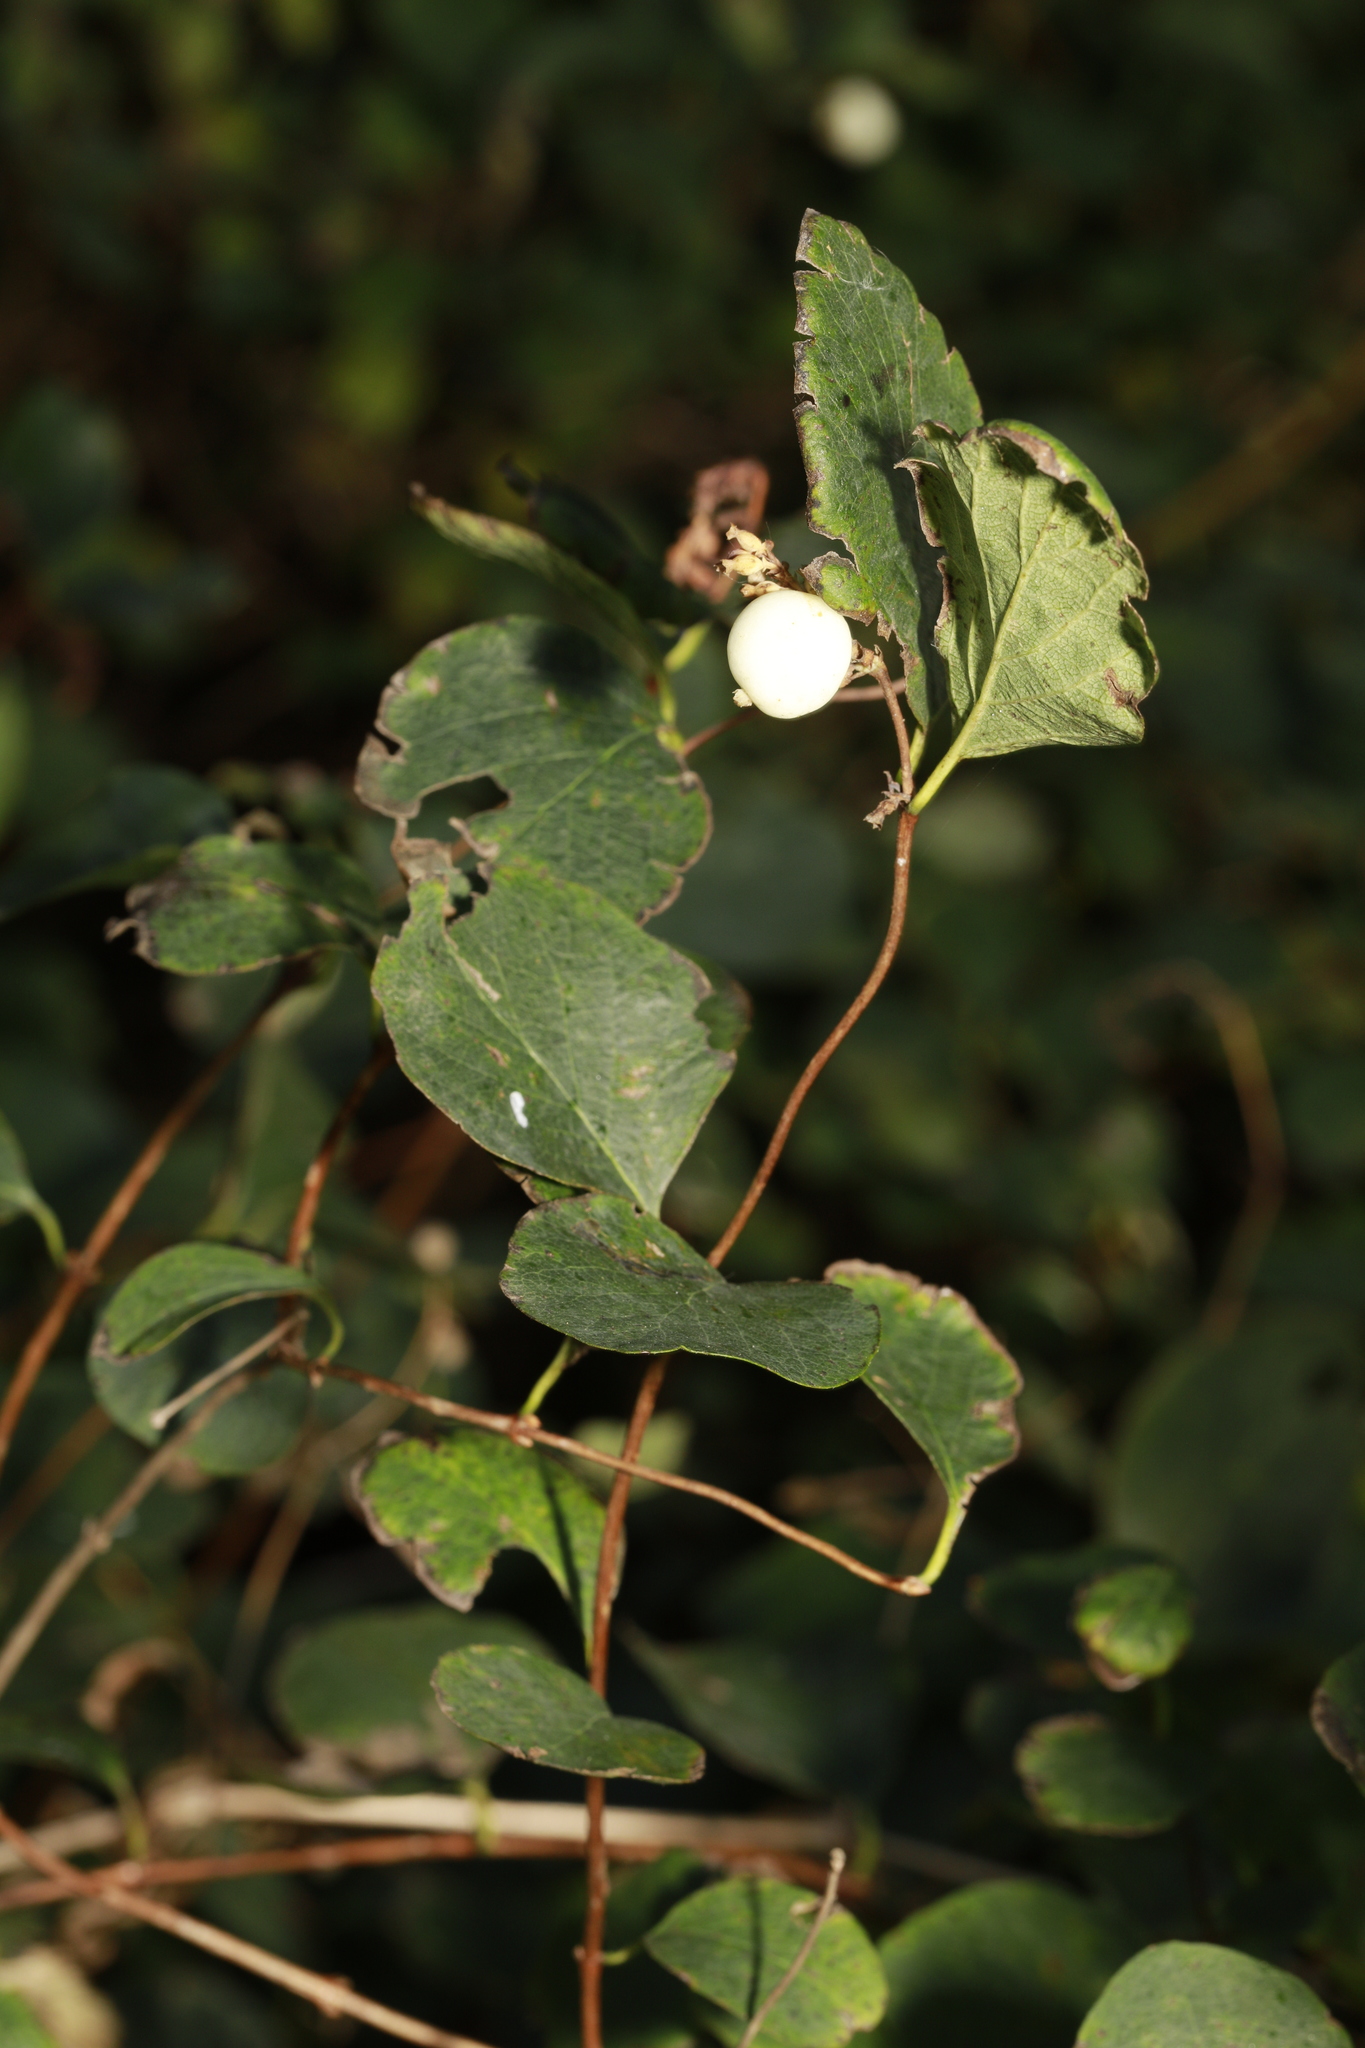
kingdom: Plantae
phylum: Tracheophyta
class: Magnoliopsida
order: Dipsacales
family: Caprifoliaceae
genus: Symphoricarpos
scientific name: Symphoricarpos albus
